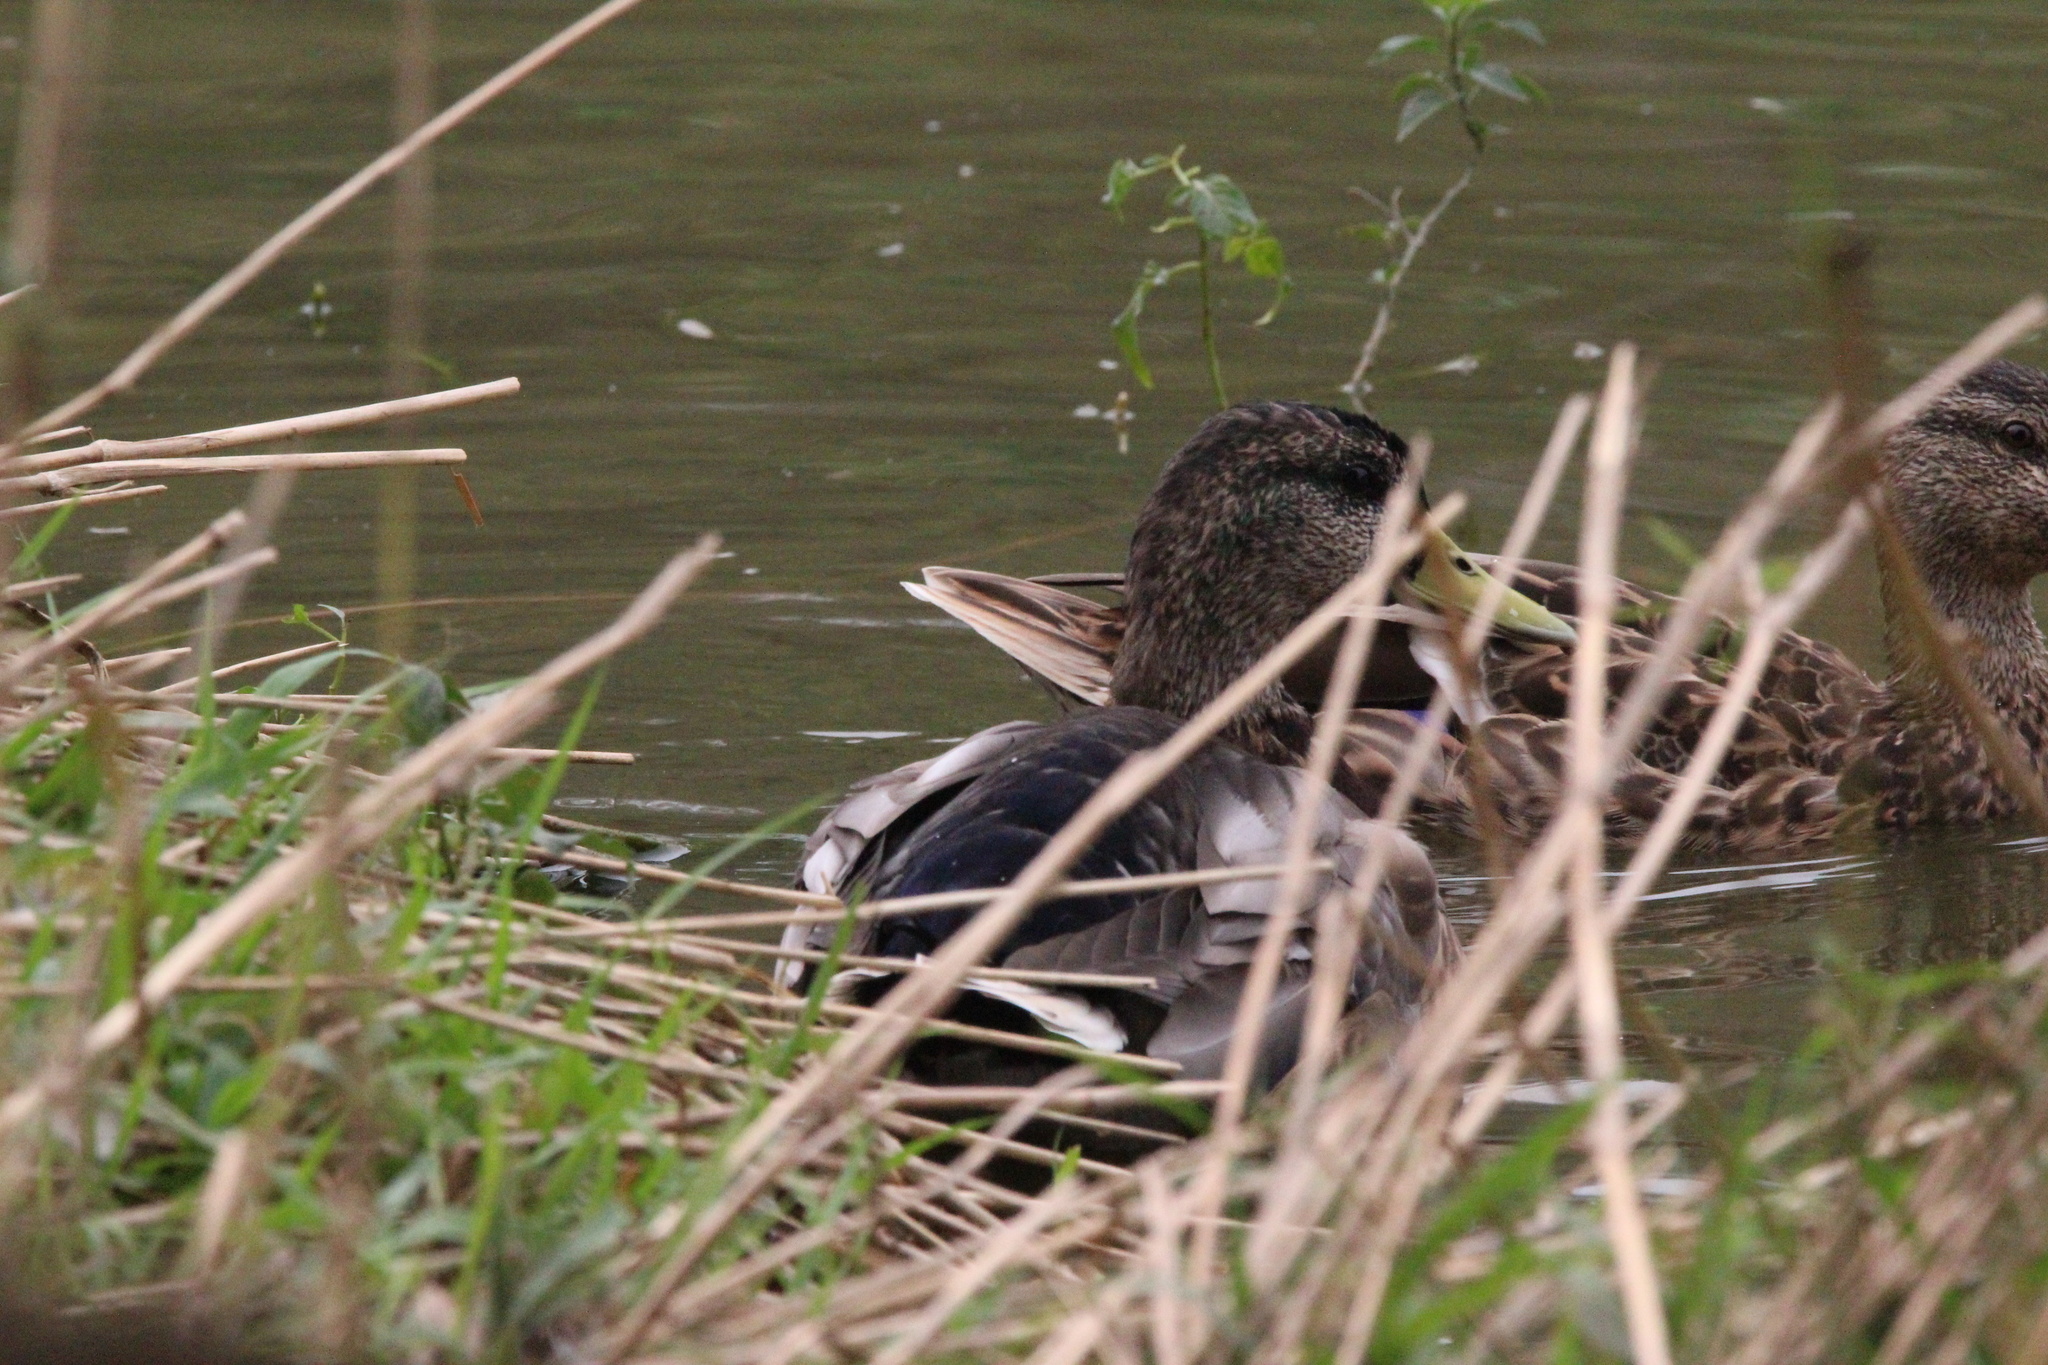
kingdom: Animalia
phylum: Chordata
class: Aves
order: Anseriformes
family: Anatidae
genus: Anas
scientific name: Anas platyrhynchos
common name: Mallard
